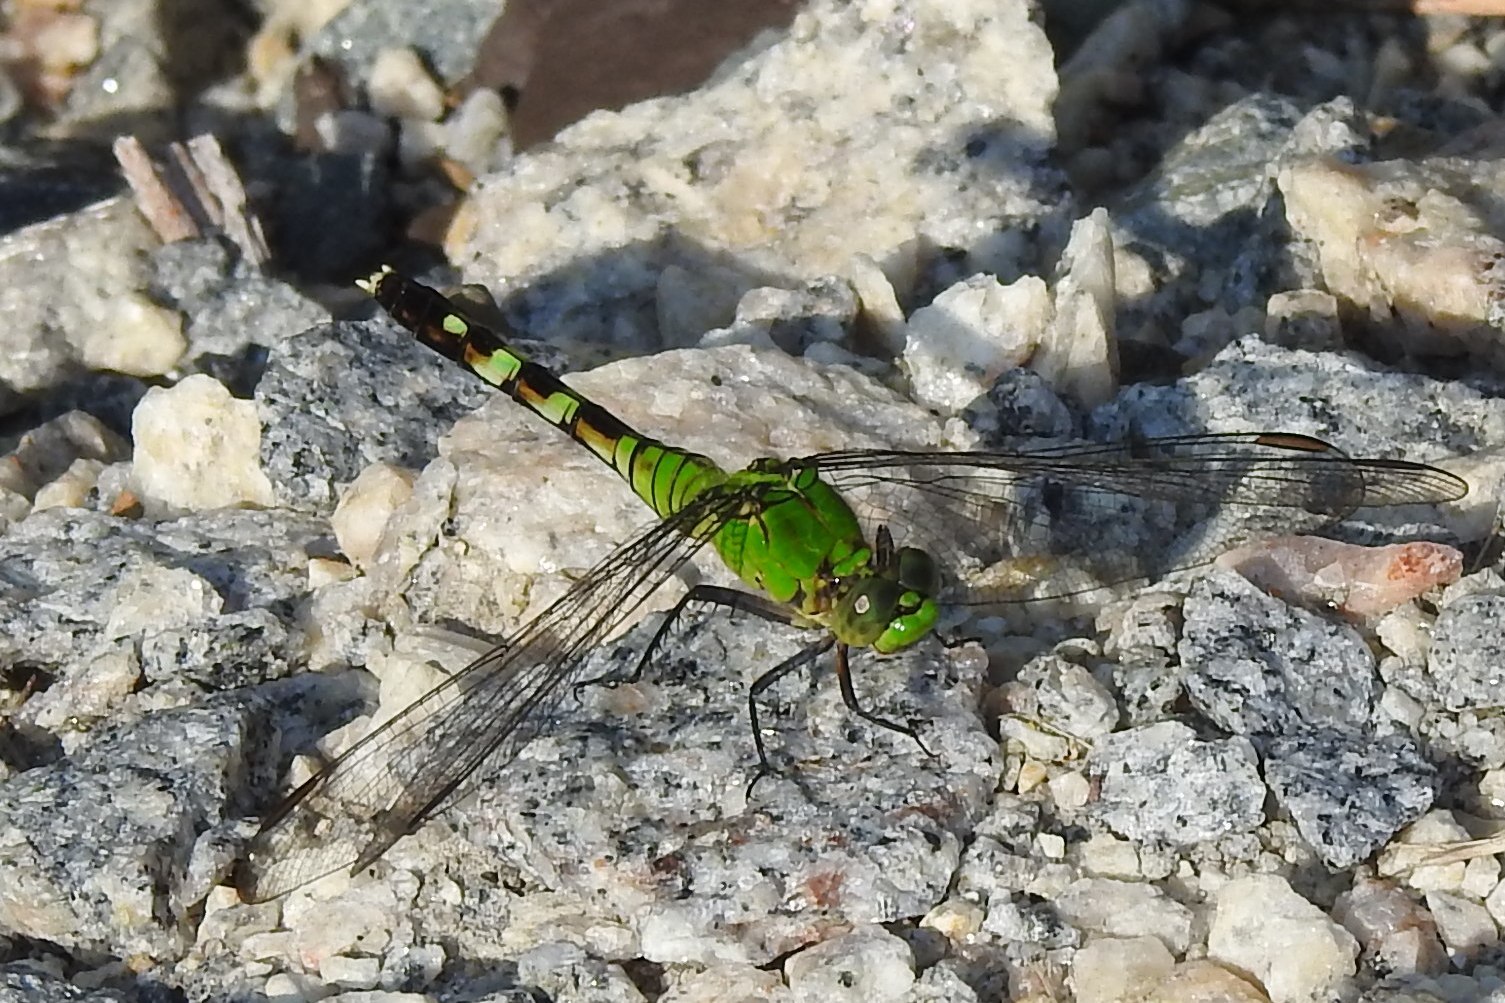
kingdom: Animalia
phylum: Arthropoda
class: Insecta
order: Odonata
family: Libellulidae
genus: Erythemis
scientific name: Erythemis simplicicollis
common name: Eastern pondhawk
